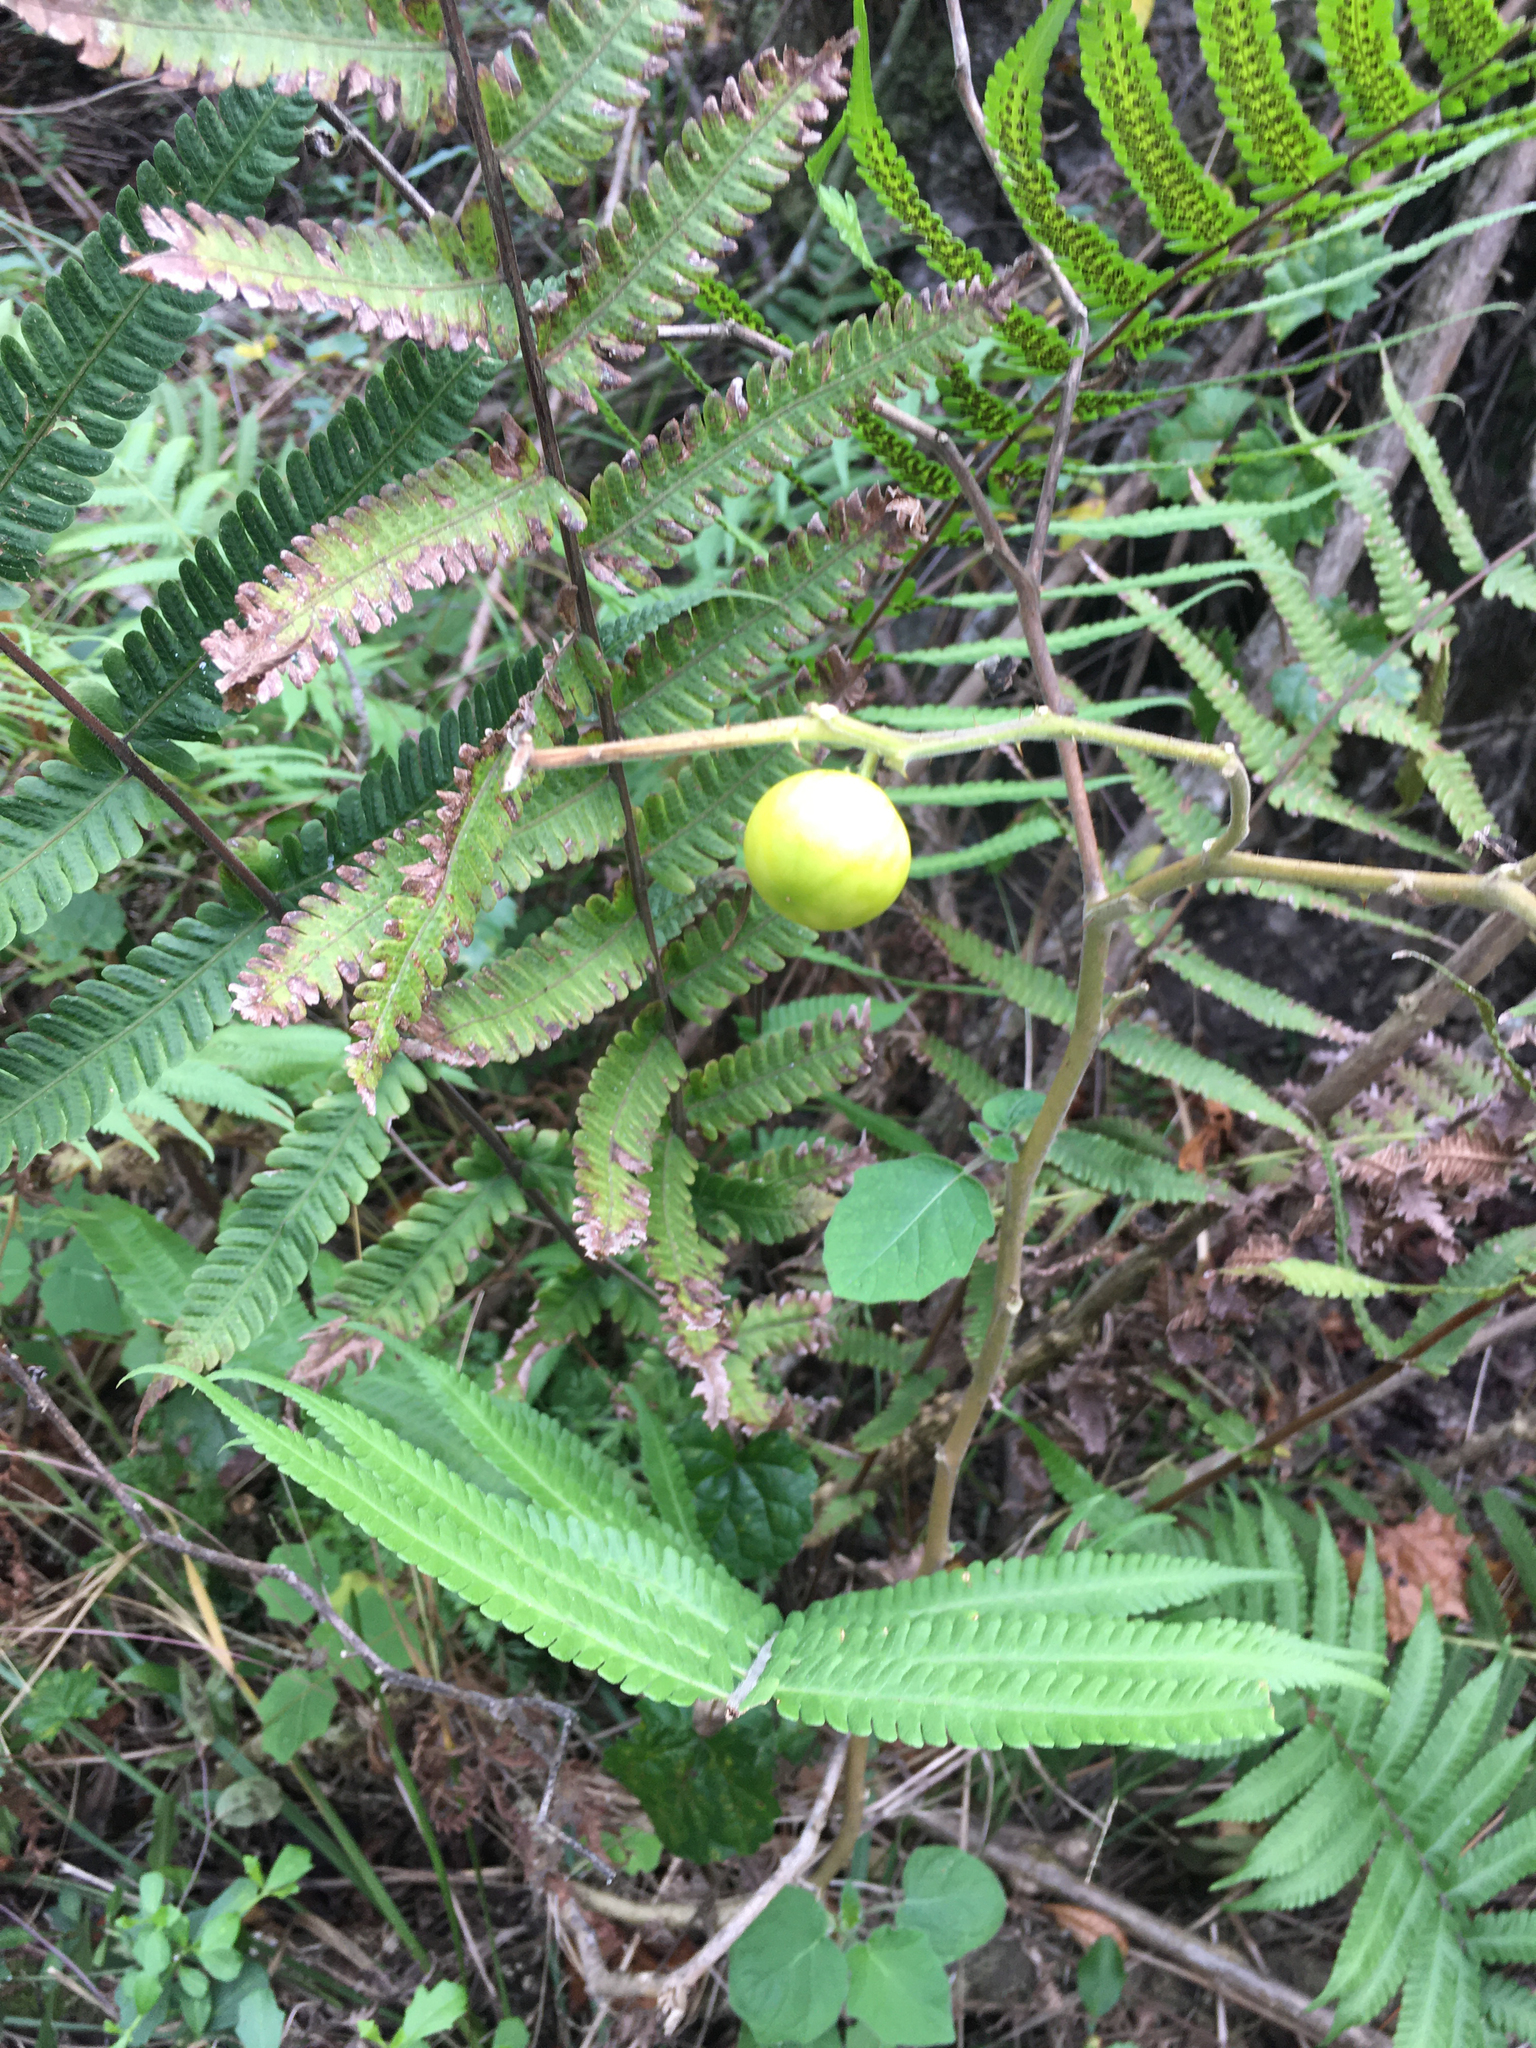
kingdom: Plantae
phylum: Tracheophyta
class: Magnoliopsida
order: Solanales
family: Solanaceae
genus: Solanum
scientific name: Solanum viarum
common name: Tropical soda apple
